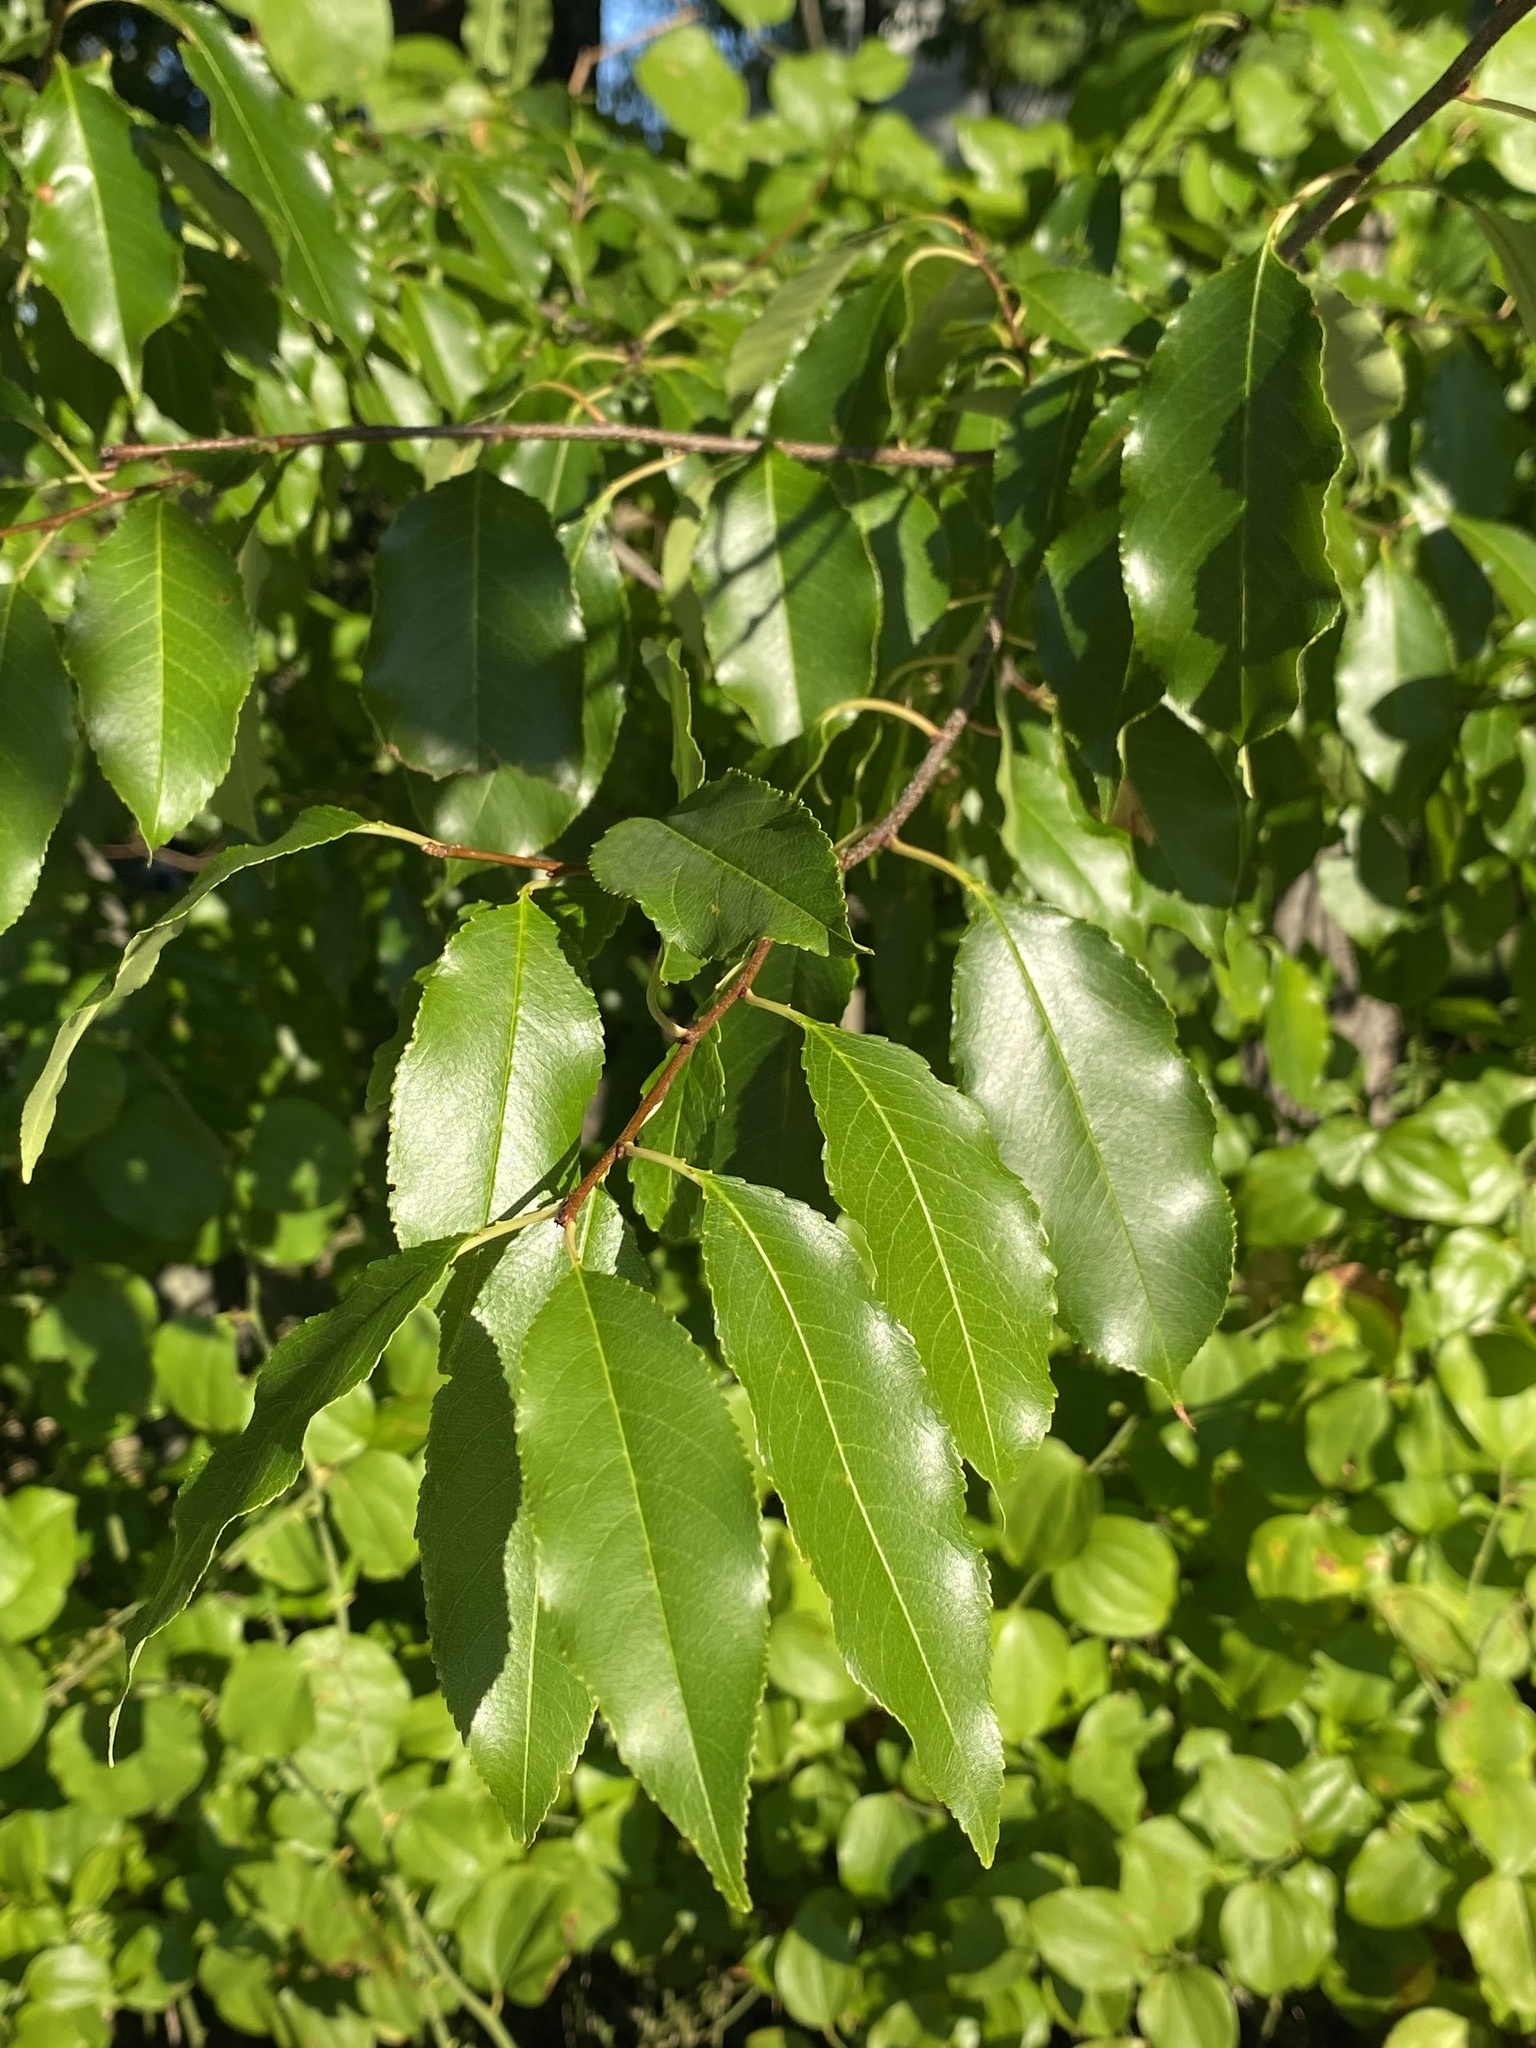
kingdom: Plantae
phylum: Tracheophyta
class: Magnoliopsida
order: Rosales
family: Rosaceae
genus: Prunus
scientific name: Prunus serotina
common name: Black cherry
